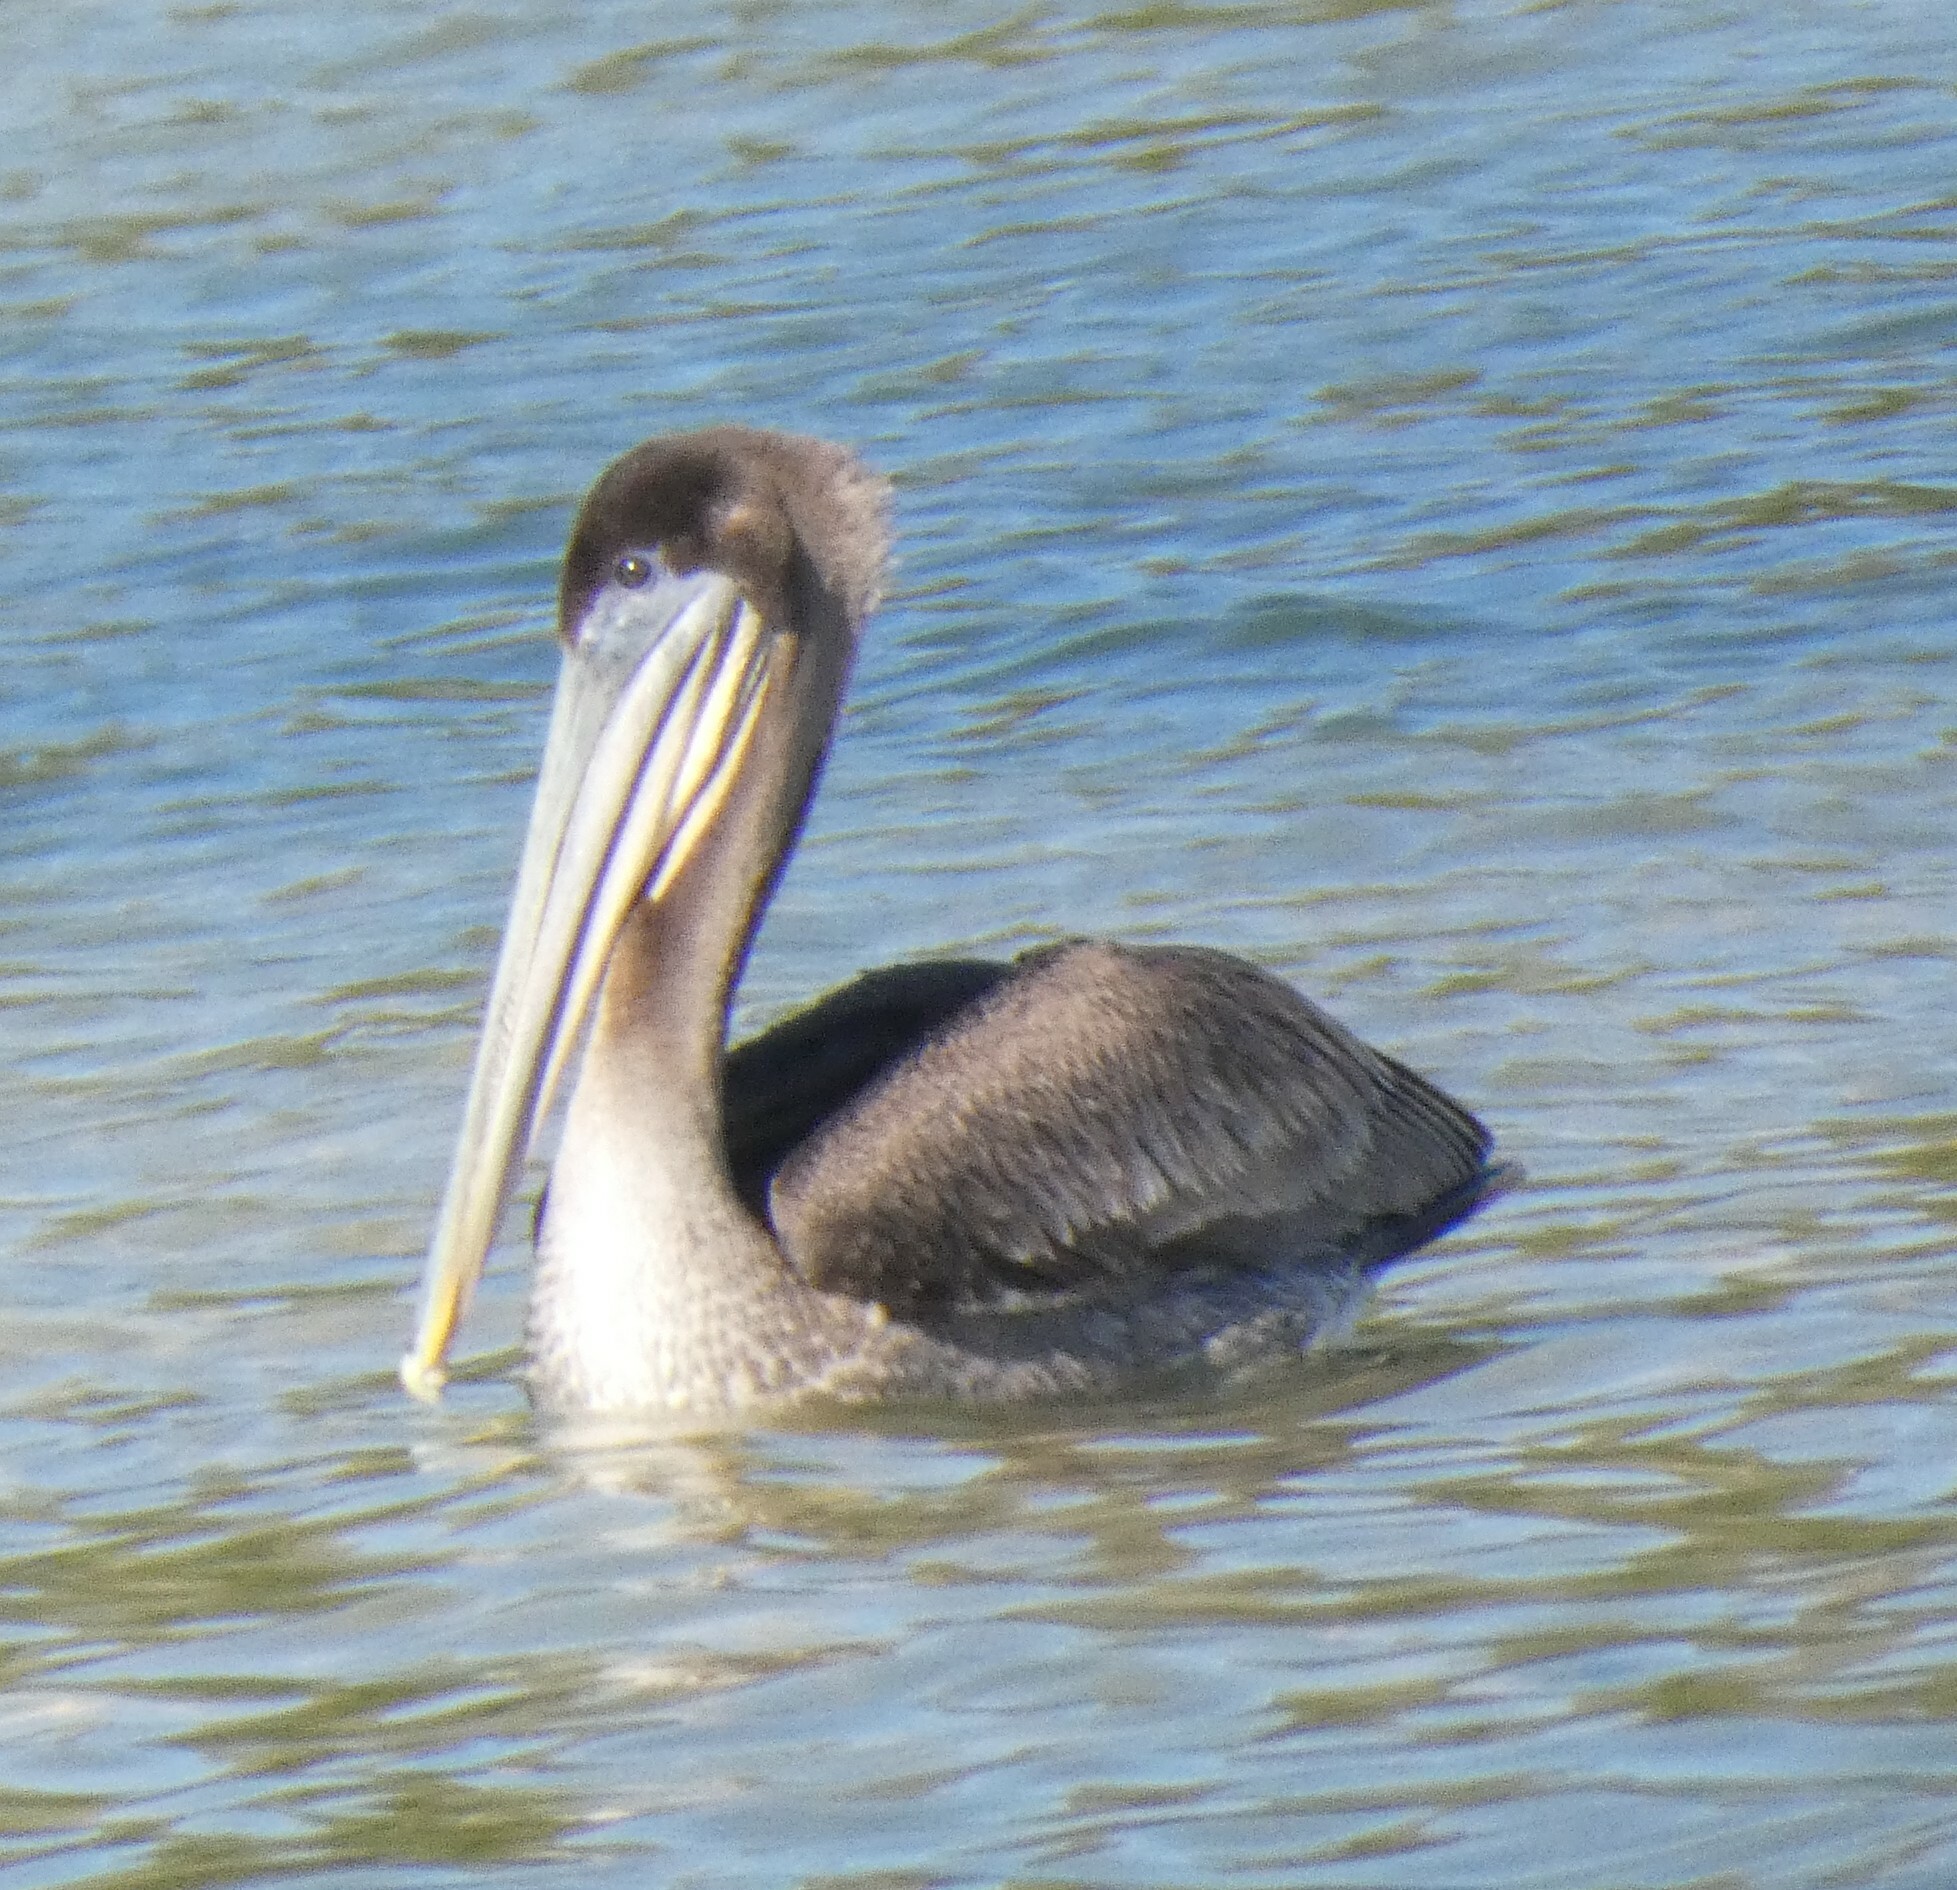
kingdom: Animalia
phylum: Chordata
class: Aves
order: Pelecaniformes
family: Pelecanidae
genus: Pelecanus
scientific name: Pelecanus occidentalis
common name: Brown pelican
